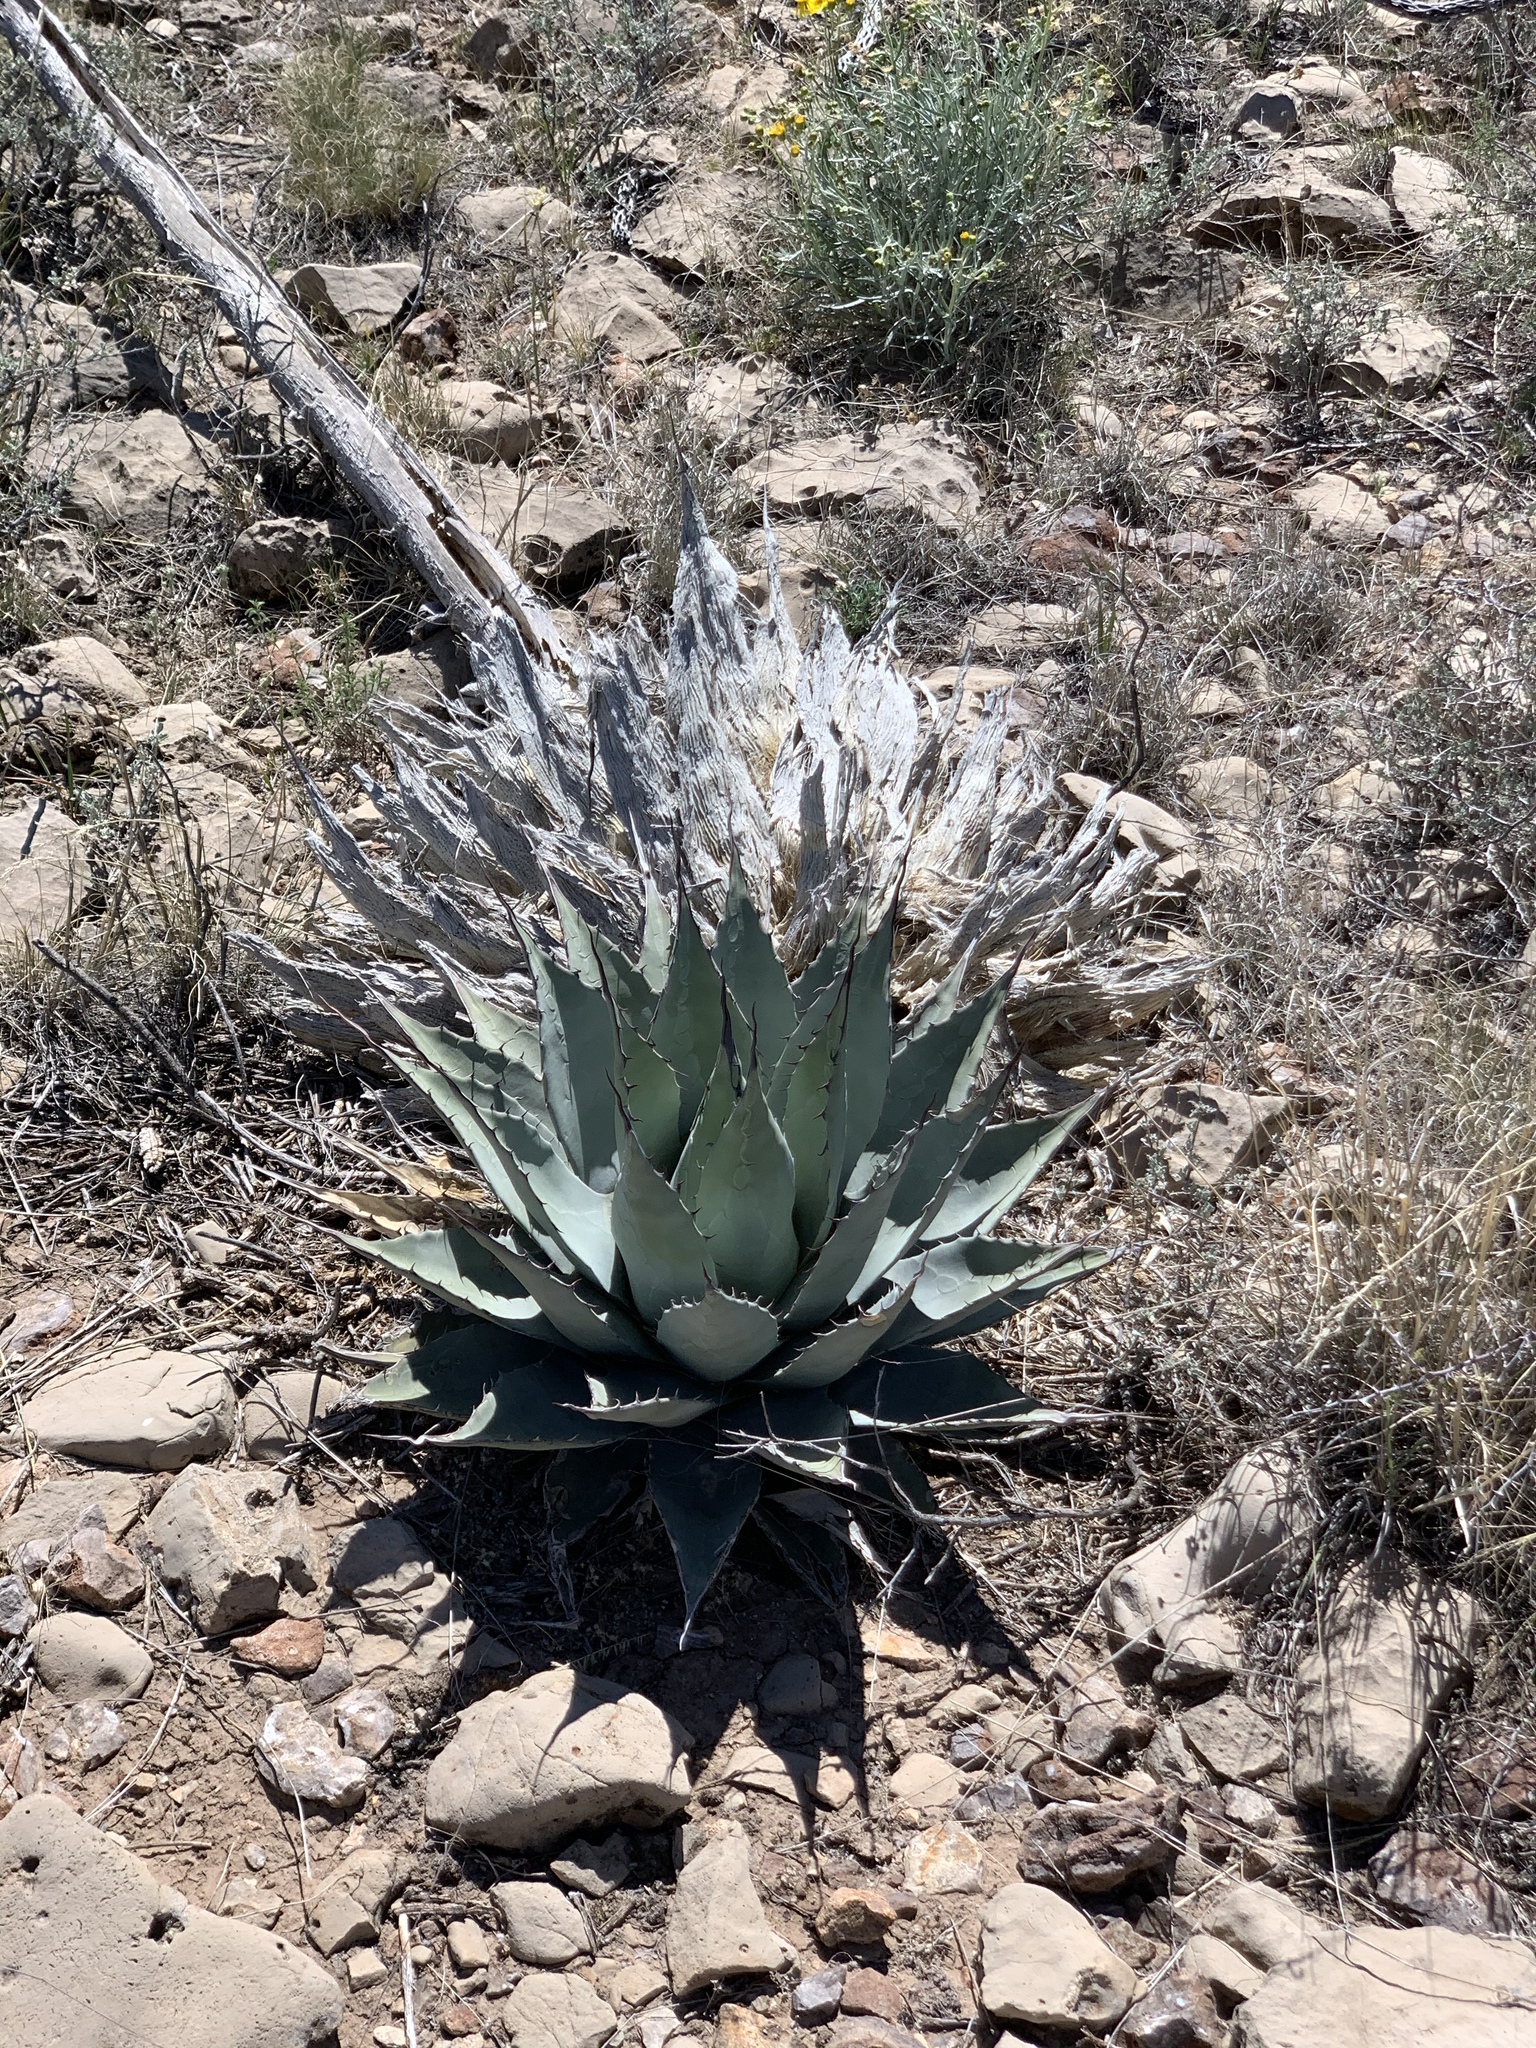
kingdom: Plantae
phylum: Tracheophyta
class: Liliopsida
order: Asparagales
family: Asparagaceae
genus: Agave
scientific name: Agave parryi
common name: Parry's agave
